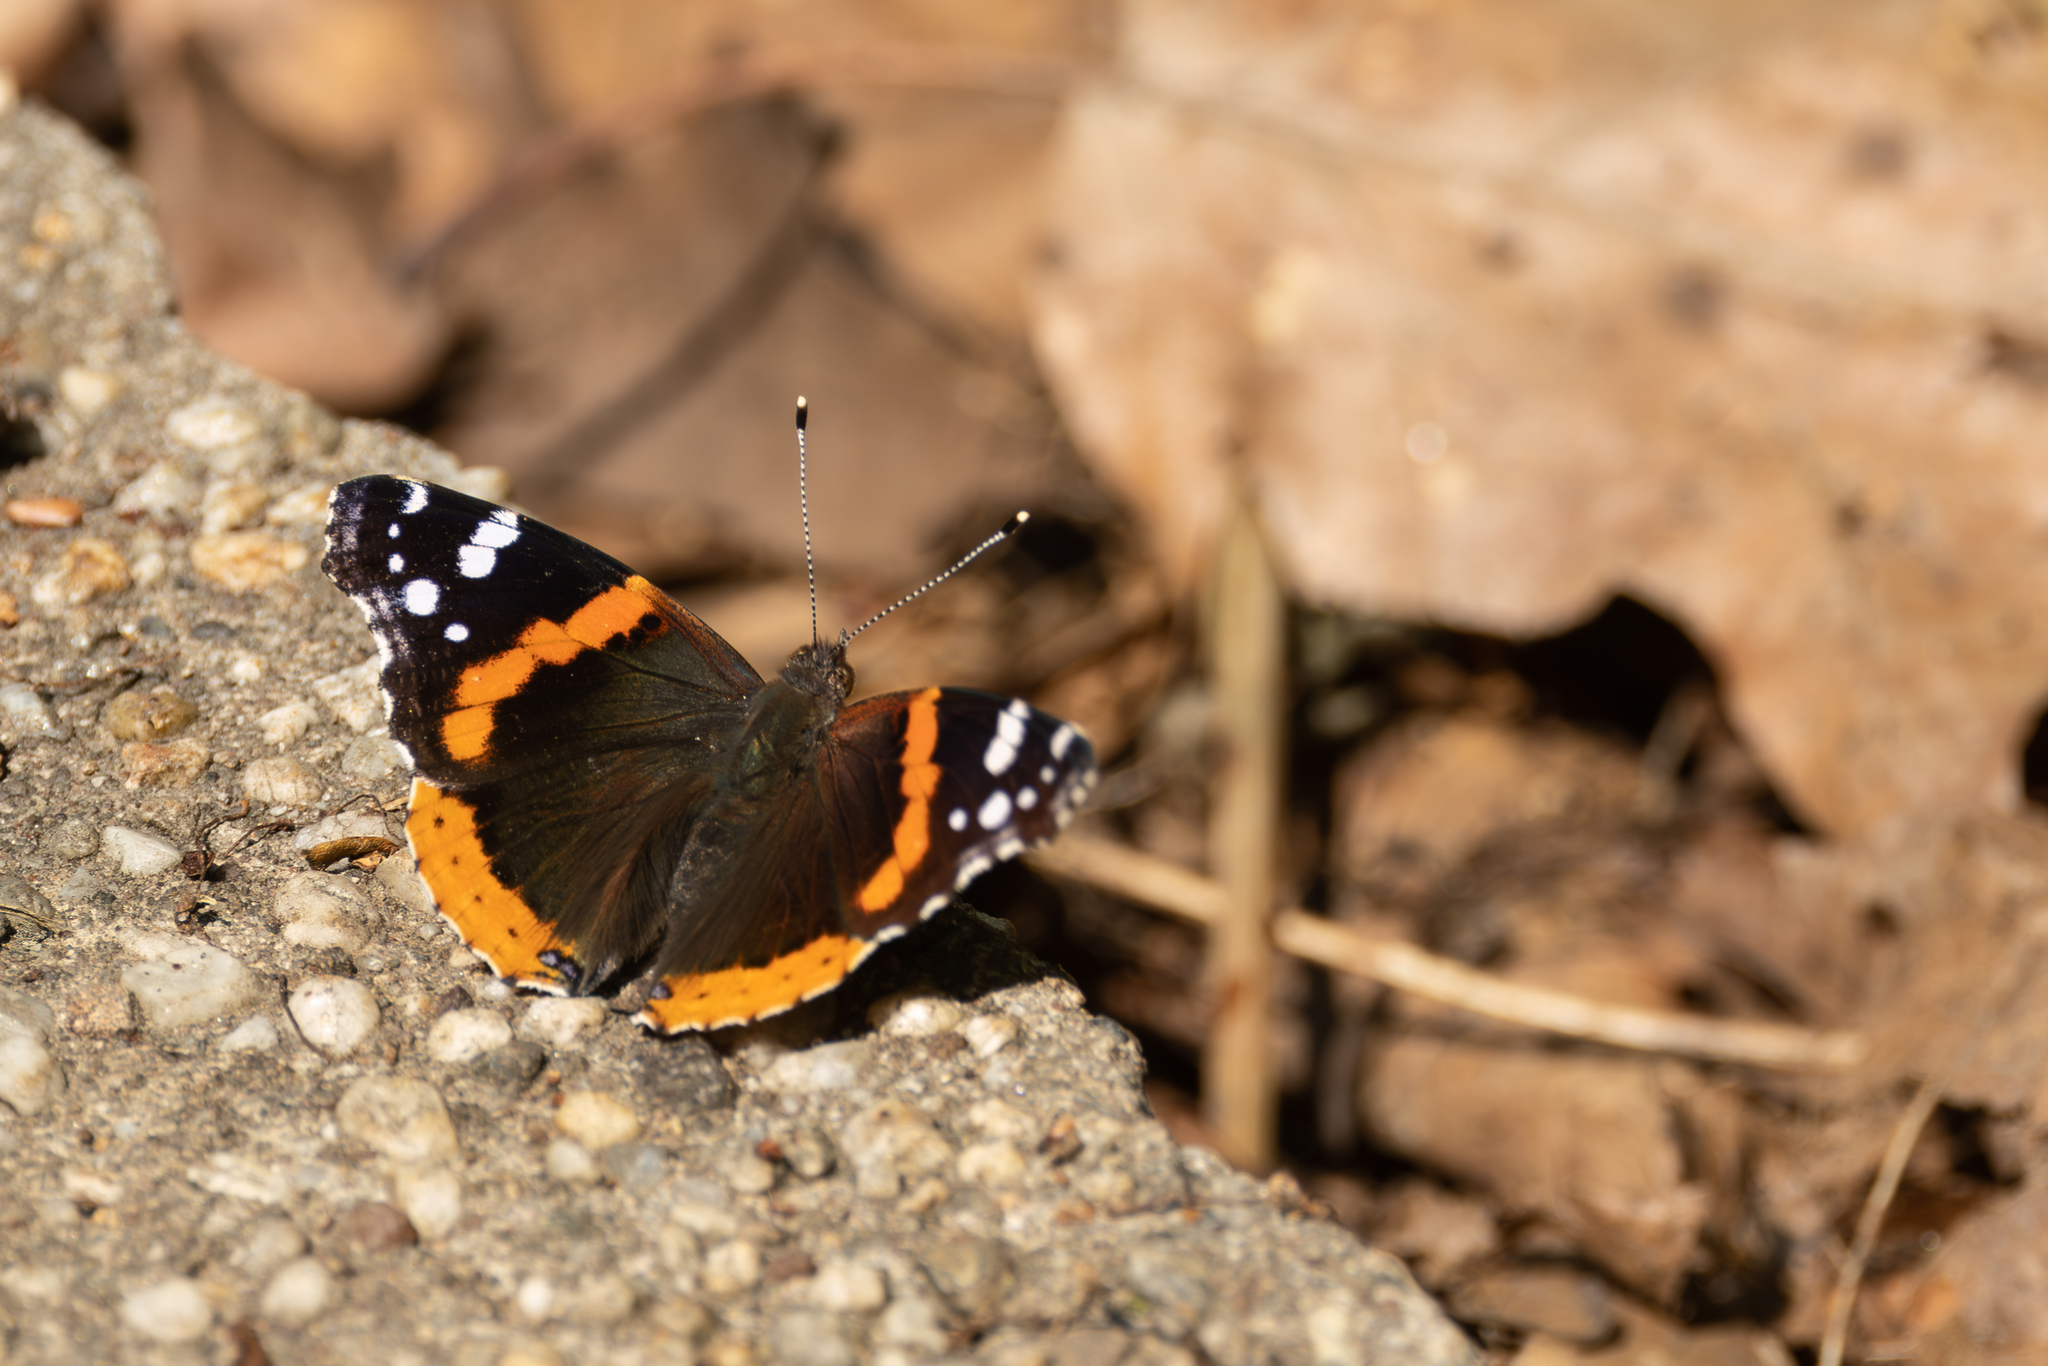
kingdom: Animalia
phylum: Arthropoda
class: Insecta
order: Lepidoptera
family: Nymphalidae
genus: Vanessa
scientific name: Vanessa atalanta
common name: Red admiral
